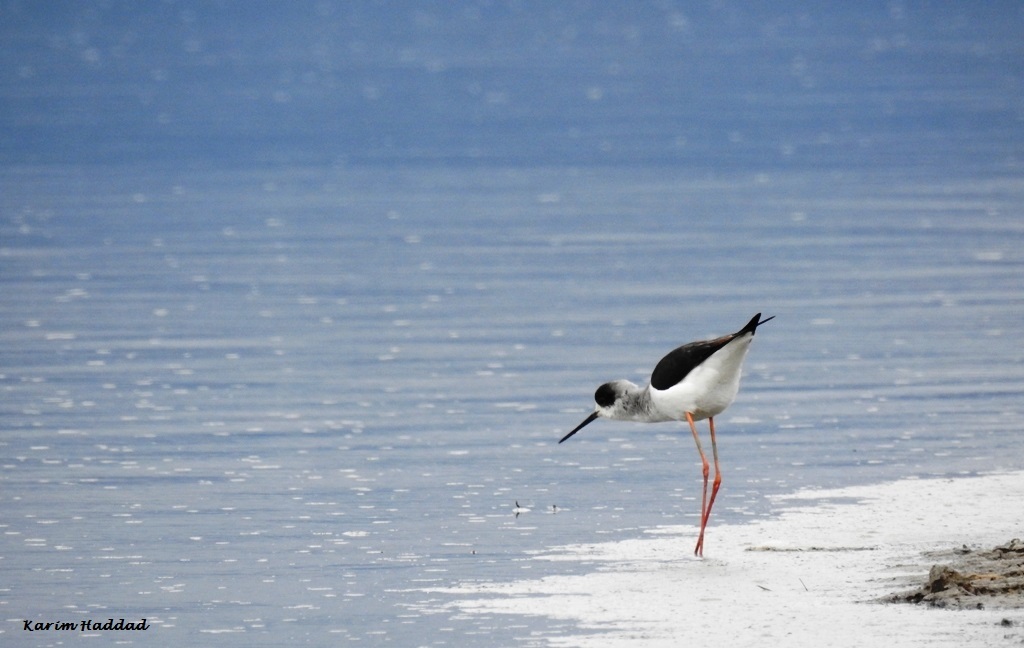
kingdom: Animalia
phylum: Chordata
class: Aves
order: Charadriiformes
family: Recurvirostridae
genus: Himantopus
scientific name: Himantopus himantopus
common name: Black-winged stilt
